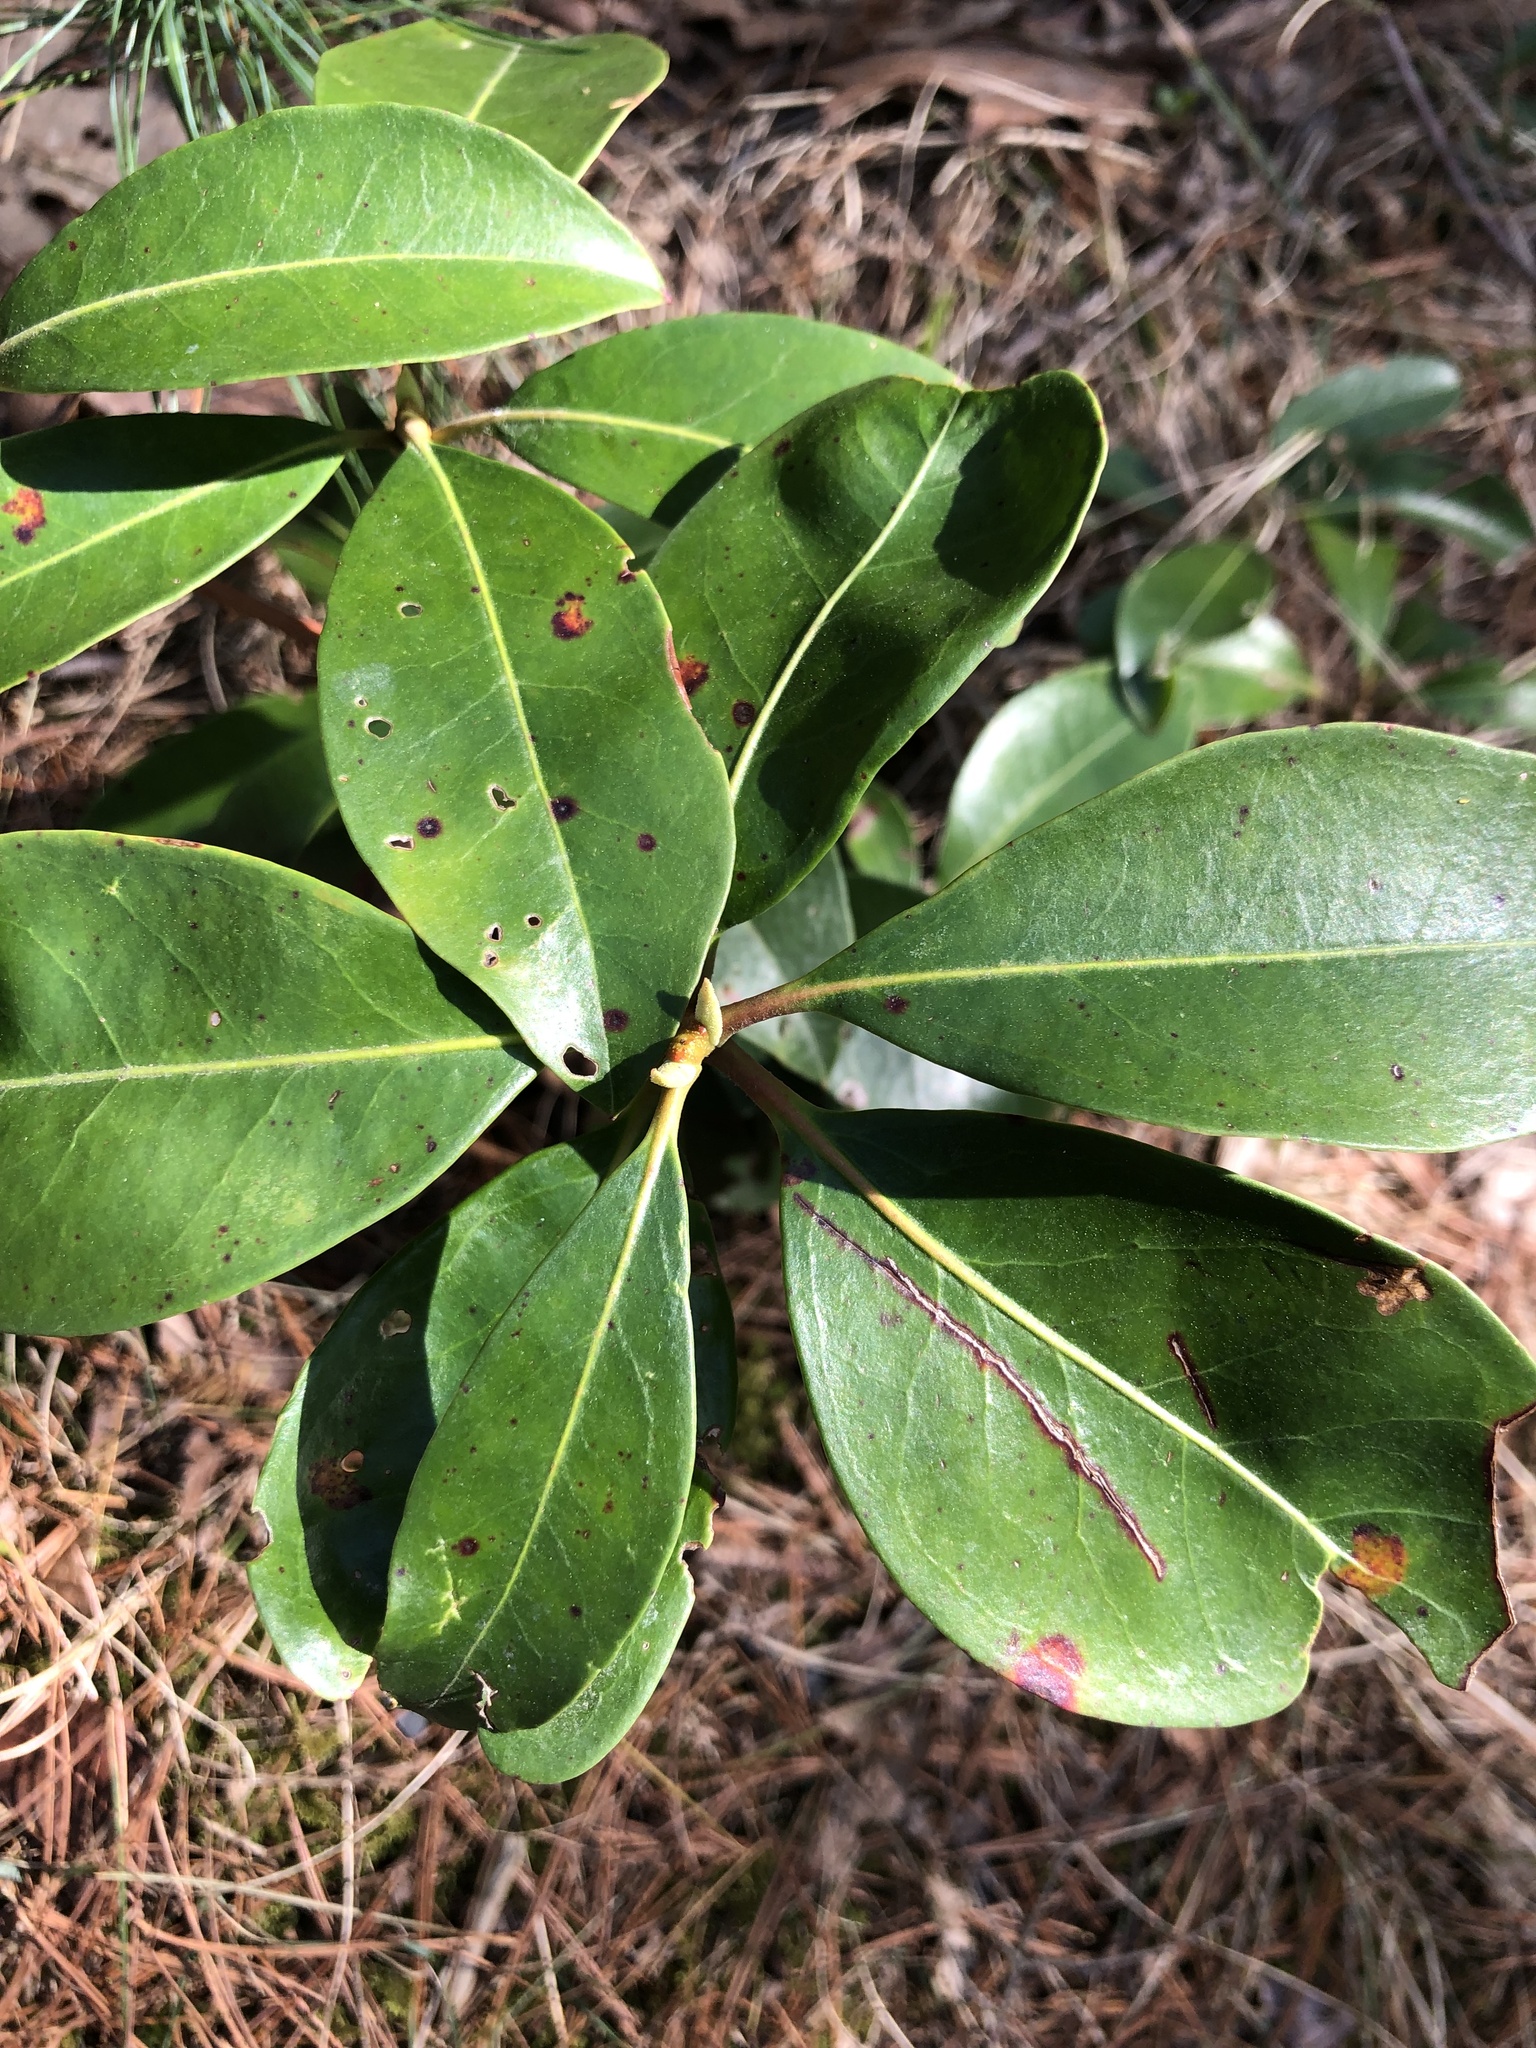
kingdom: Plantae
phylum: Tracheophyta
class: Magnoliopsida
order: Ericales
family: Ericaceae
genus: Kalmia
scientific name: Kalmia latifolia
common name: Mountain-laurel
